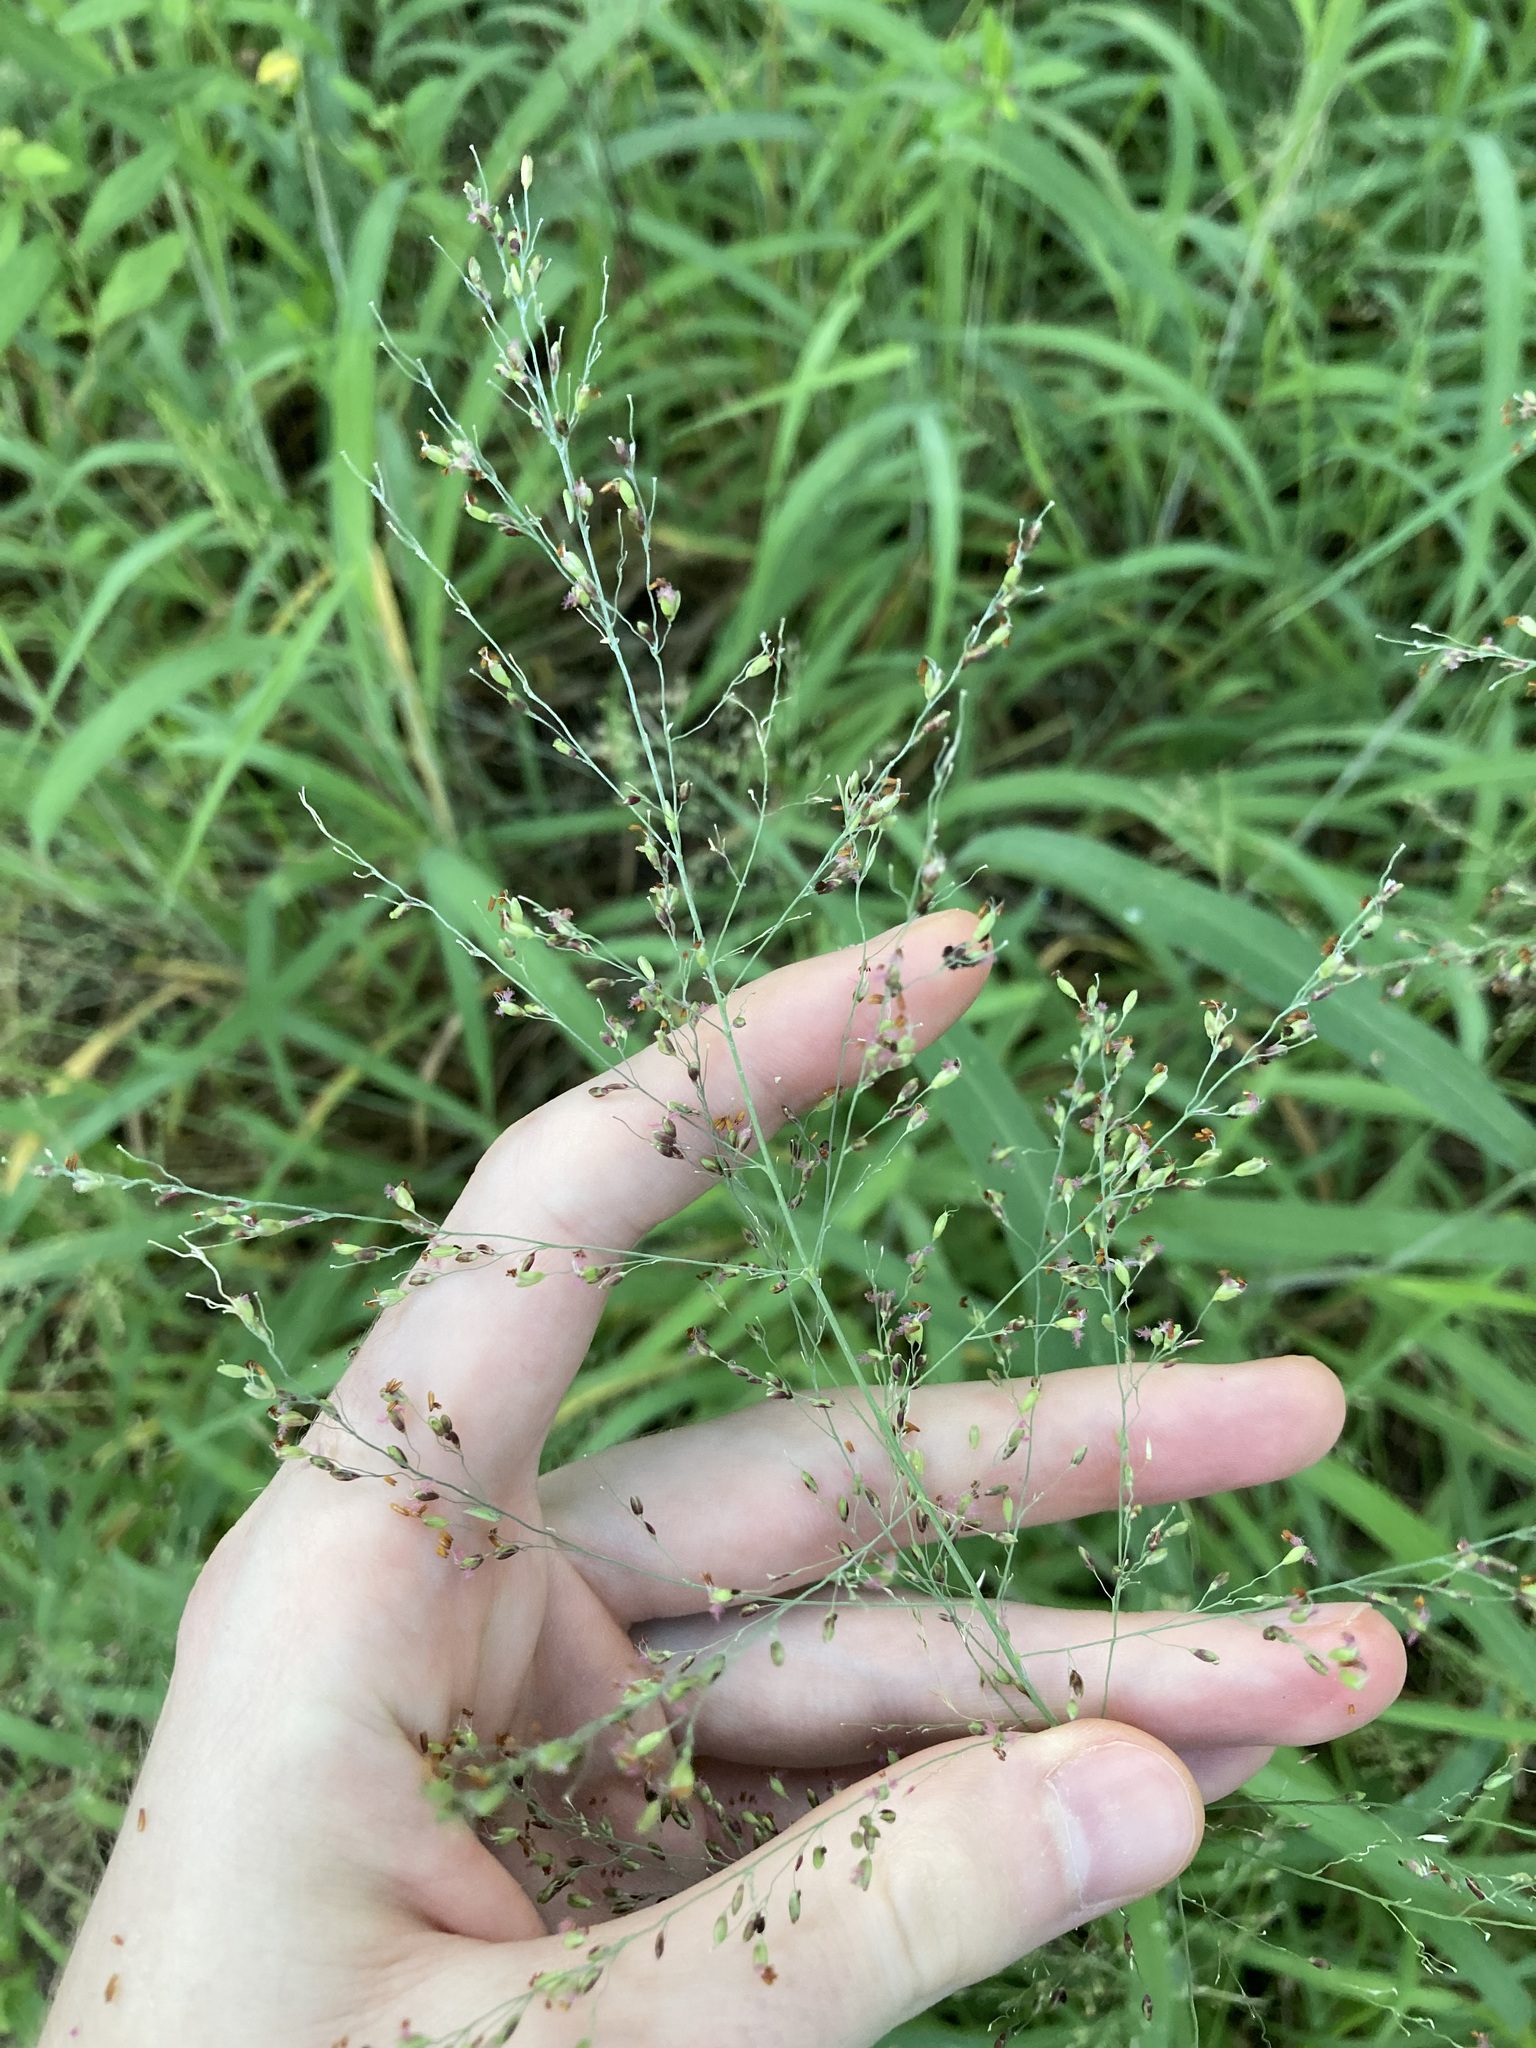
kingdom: Plantae
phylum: Tracheophyta
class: Liliopsida
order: Poales
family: Poaceae
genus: Megathyrsus
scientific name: Megathyrsus maximus
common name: Guineagrass
